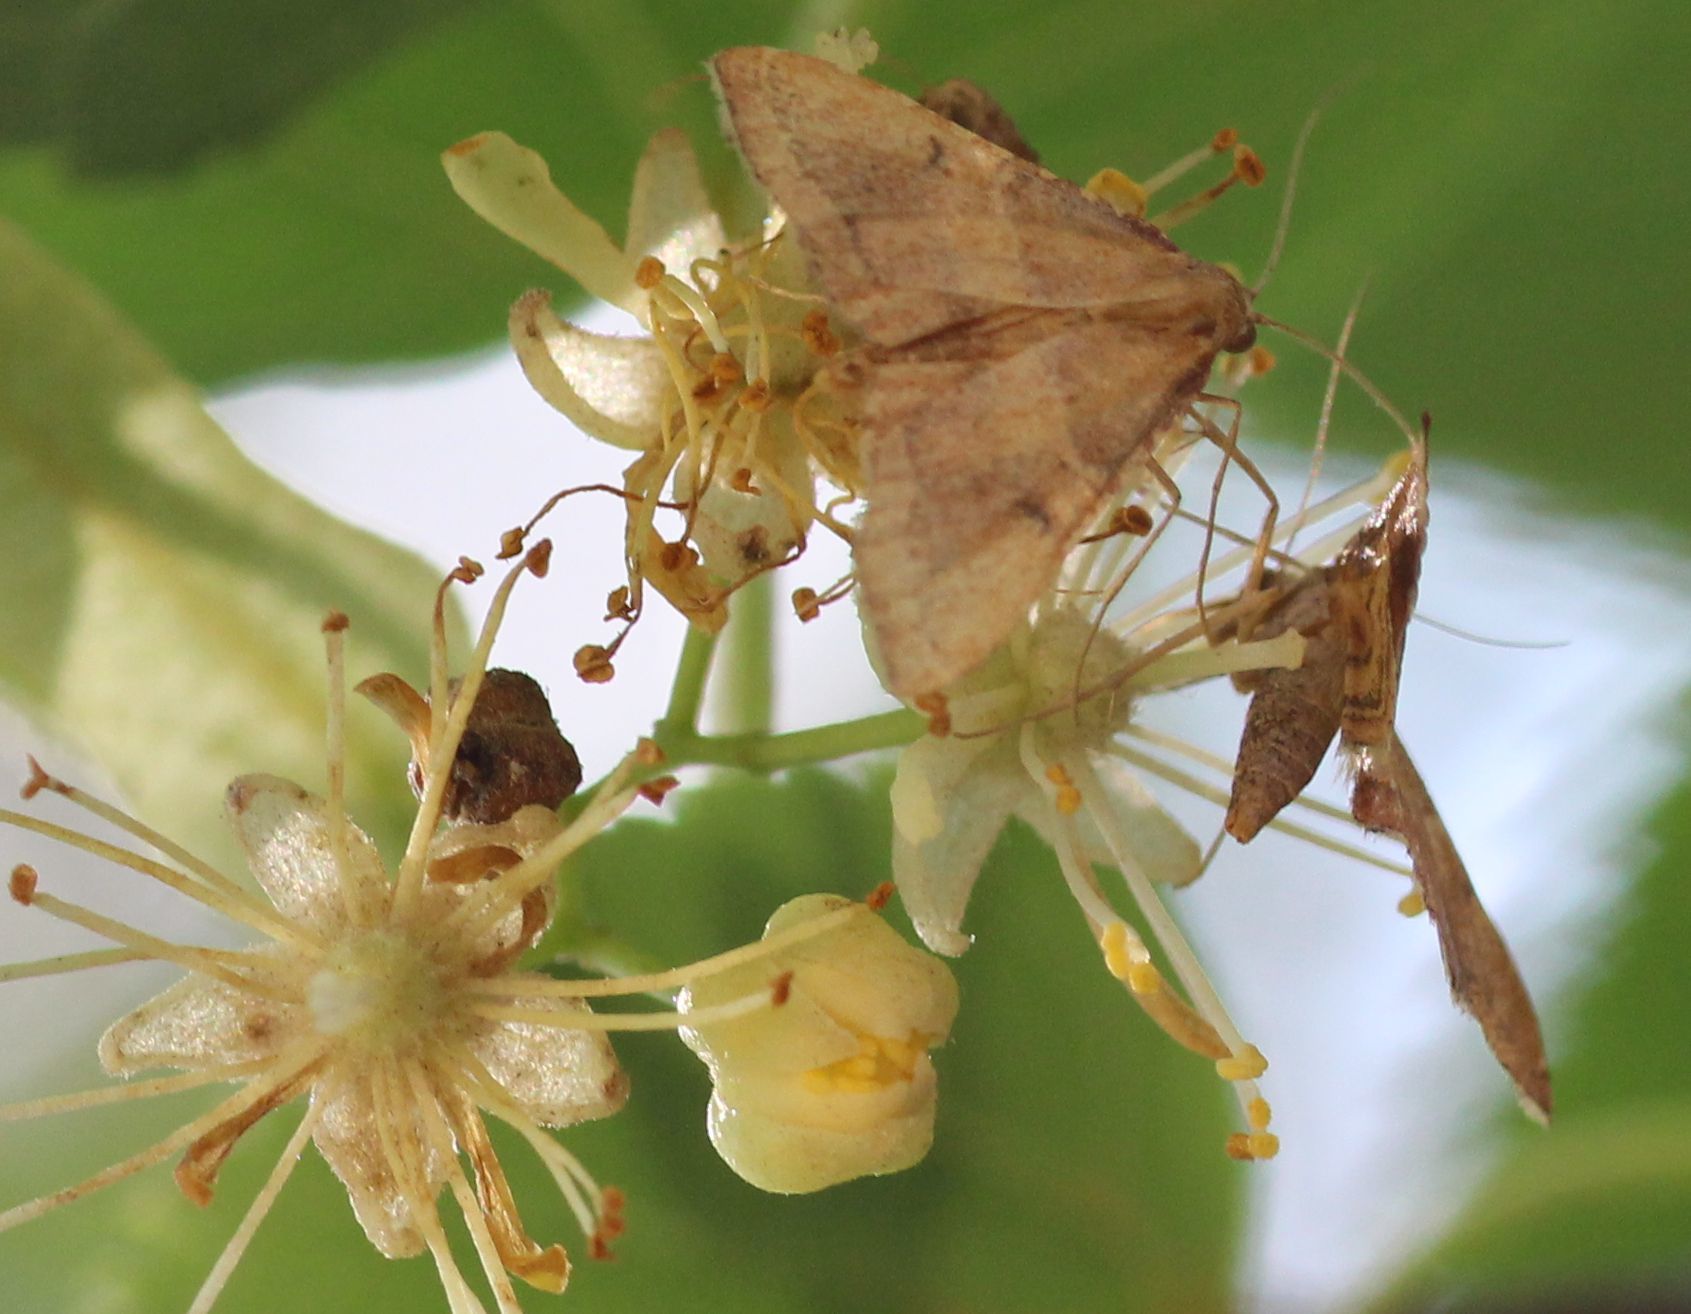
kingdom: Animalia
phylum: Arthropoda
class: Insecta
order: Lepidoptera
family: Pyralidae
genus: Endotricha
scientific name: Endotricha flammealis
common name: Rosy tabby
